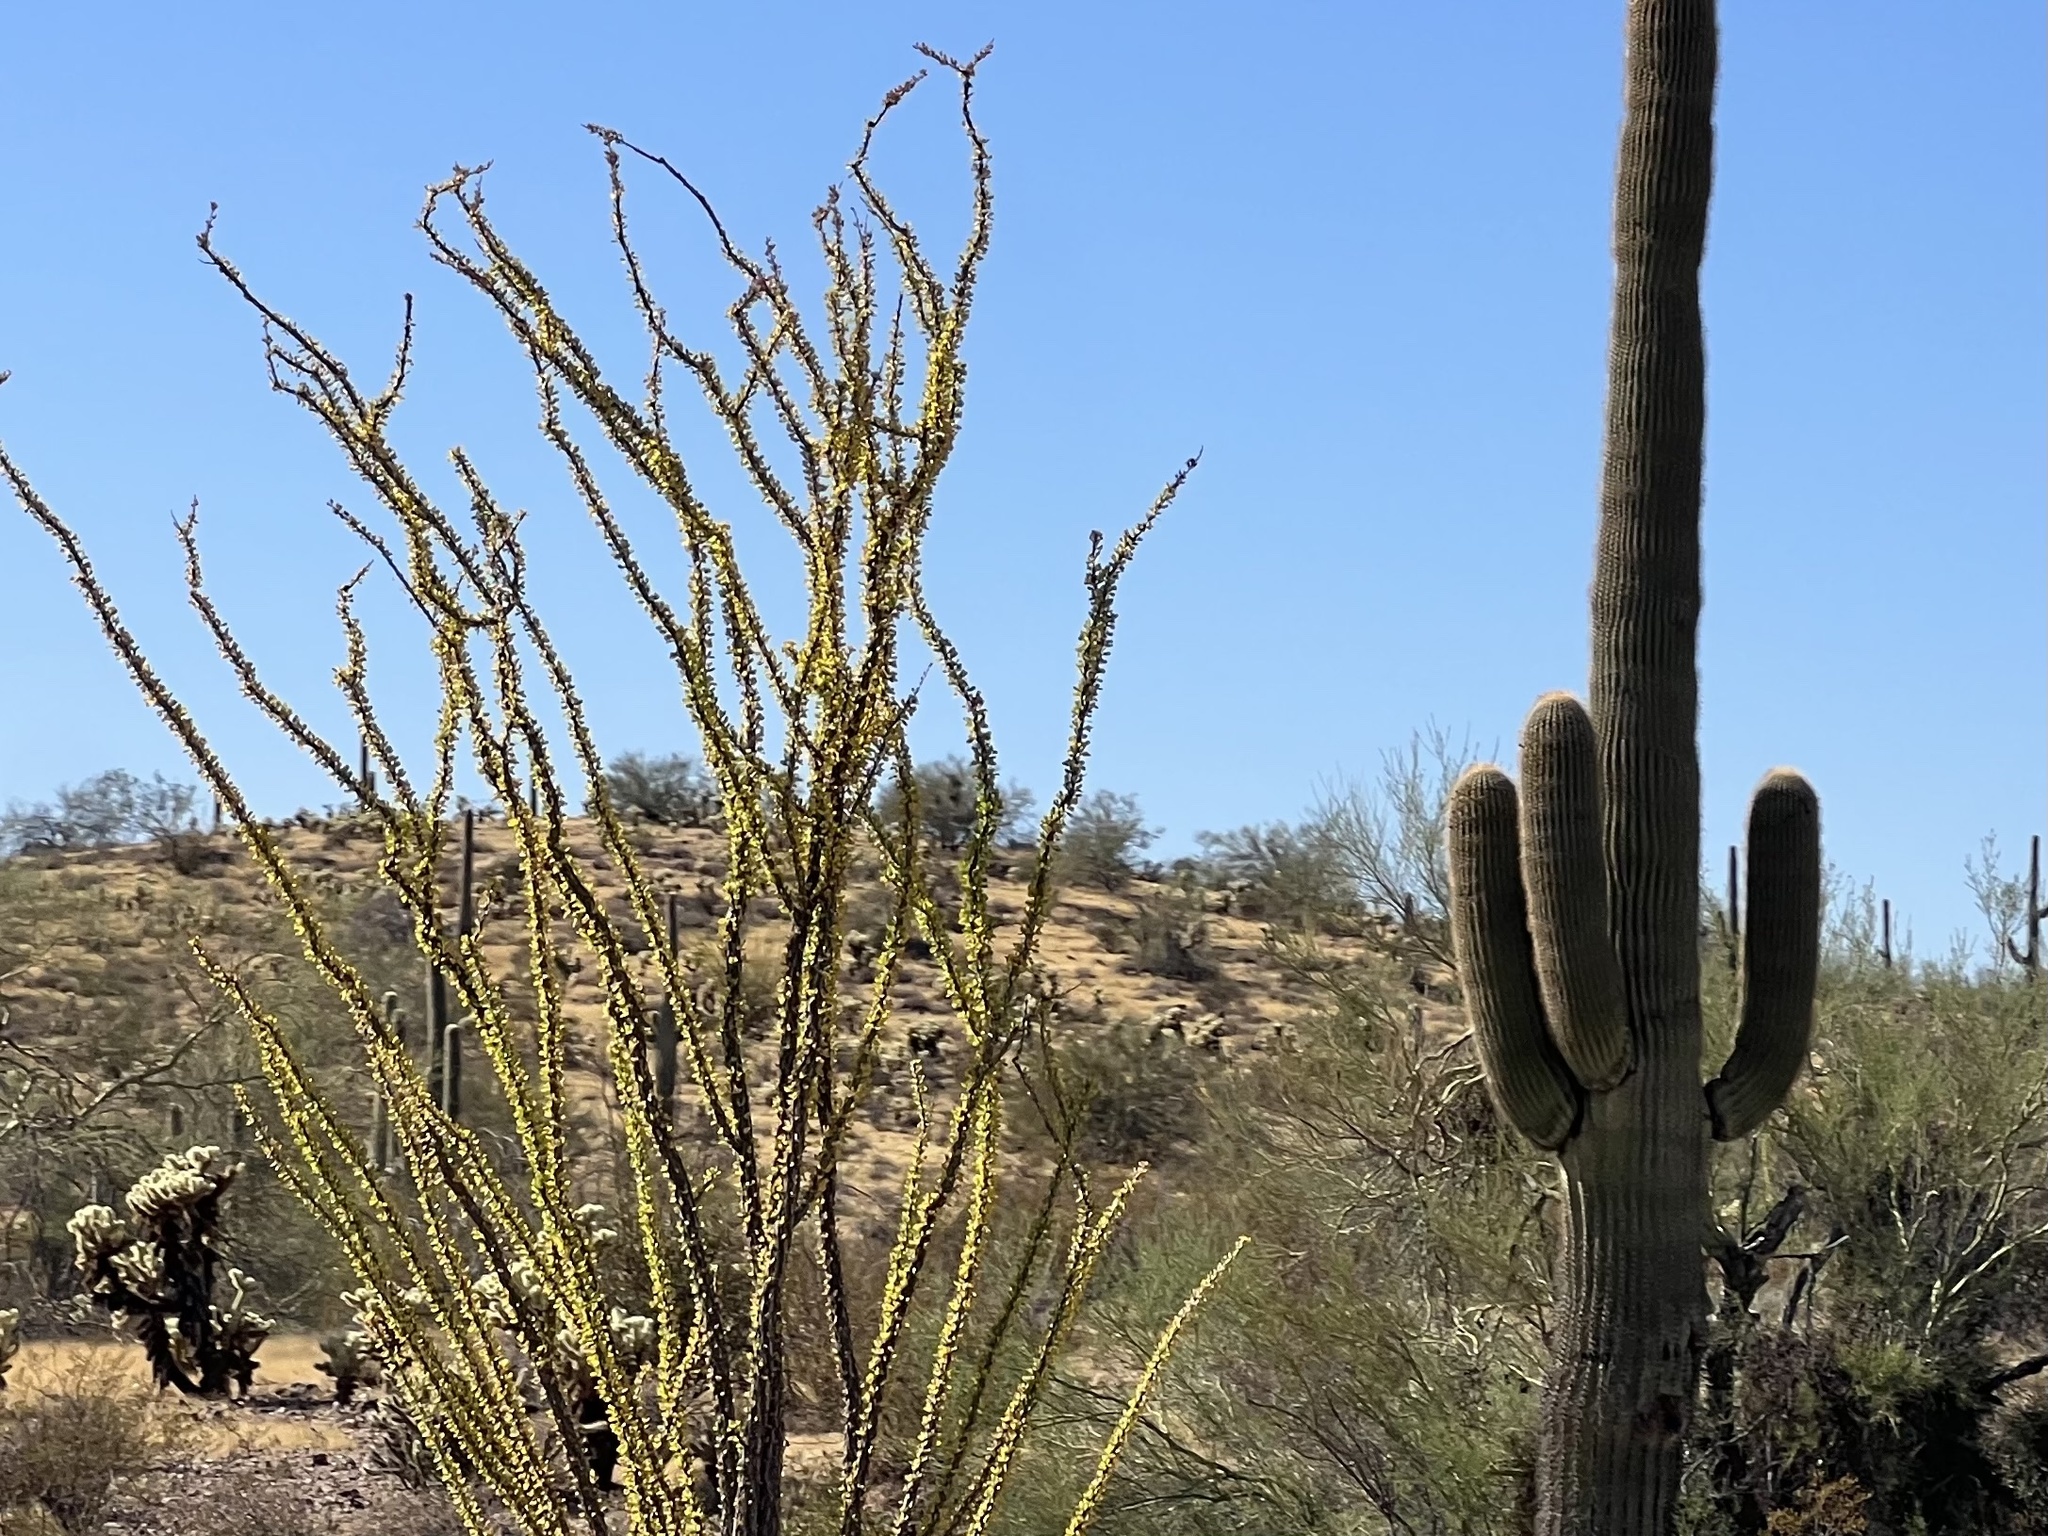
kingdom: Plantae
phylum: Tracheophyta
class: Magnoliopsida
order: Ericales
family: Fouquieriaceae
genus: Fouquieria
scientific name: Fouquieria splendens
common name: Vine-cactus
